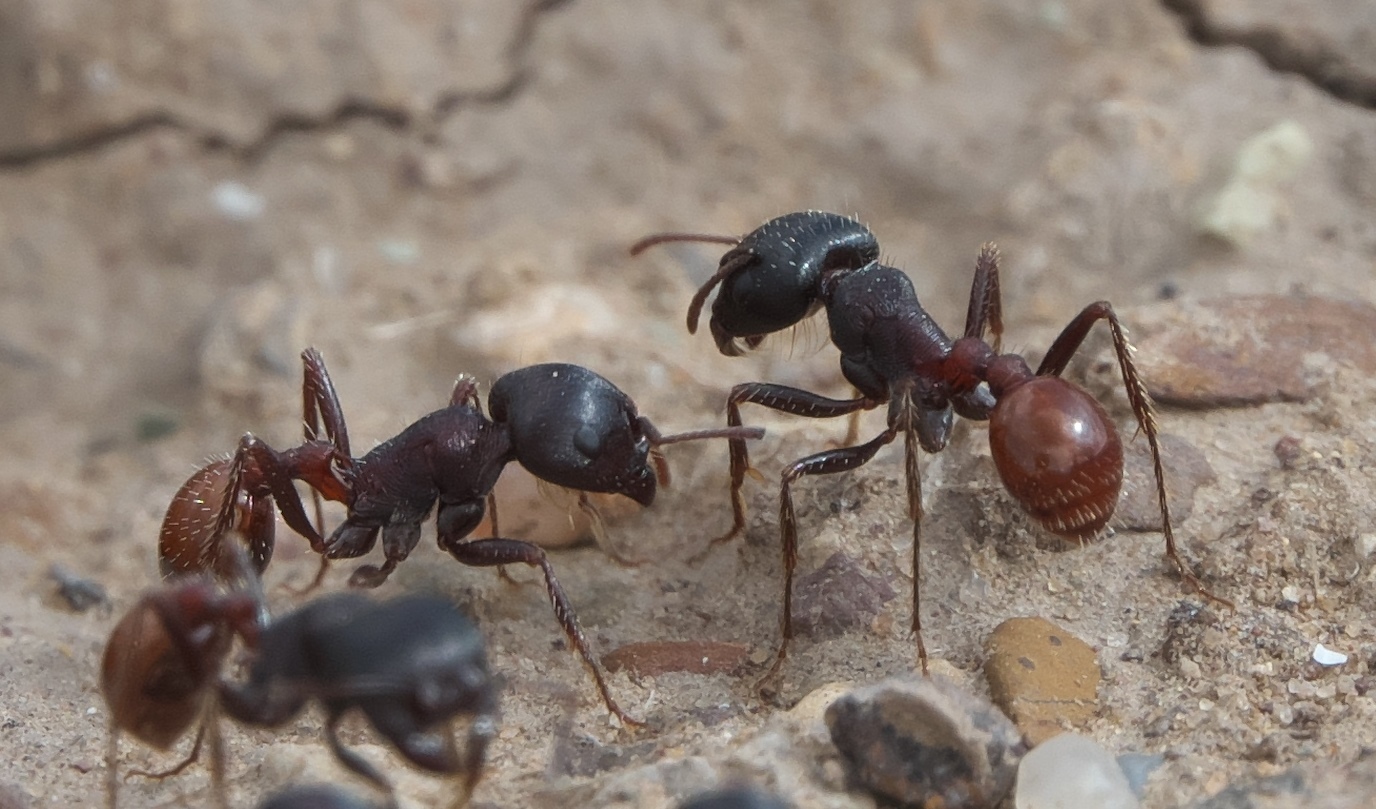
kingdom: Animalia
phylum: Arthropoda
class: Insecta
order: Hymenoptera
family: Formicidae
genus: Pogonomyrmex
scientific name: Pogonomyrmex rugosus
